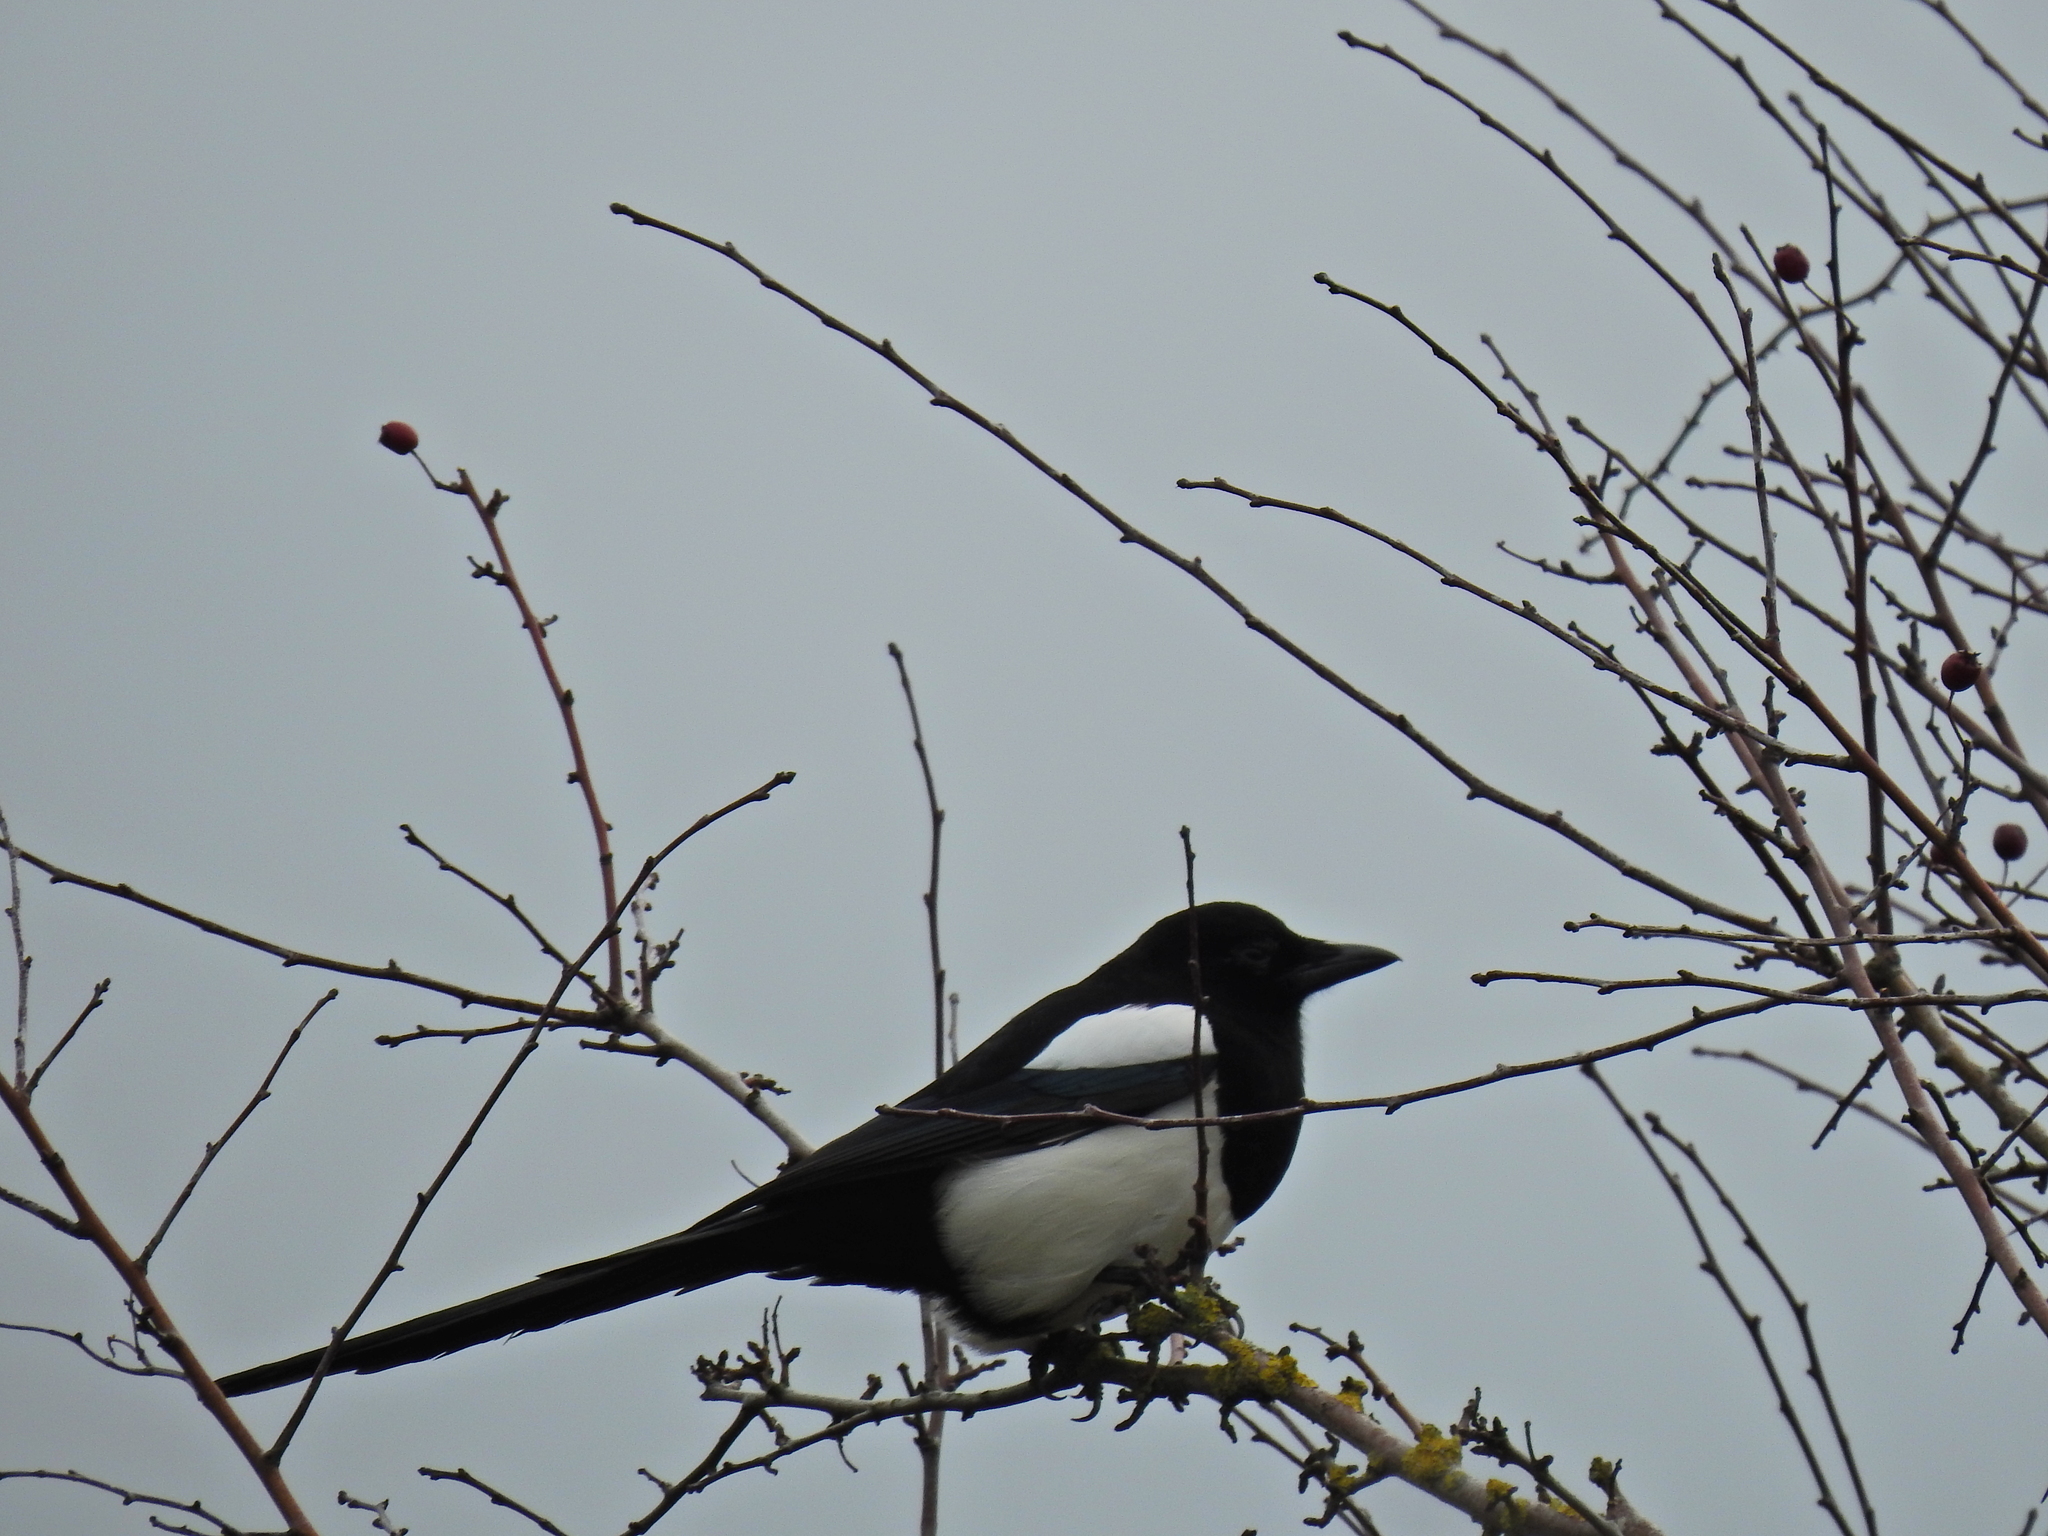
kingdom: Animalia
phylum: Chordata
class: Aves
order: Passeriformes
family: Corvidae
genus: Pica
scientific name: Pica pica
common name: Eurasian magpie
